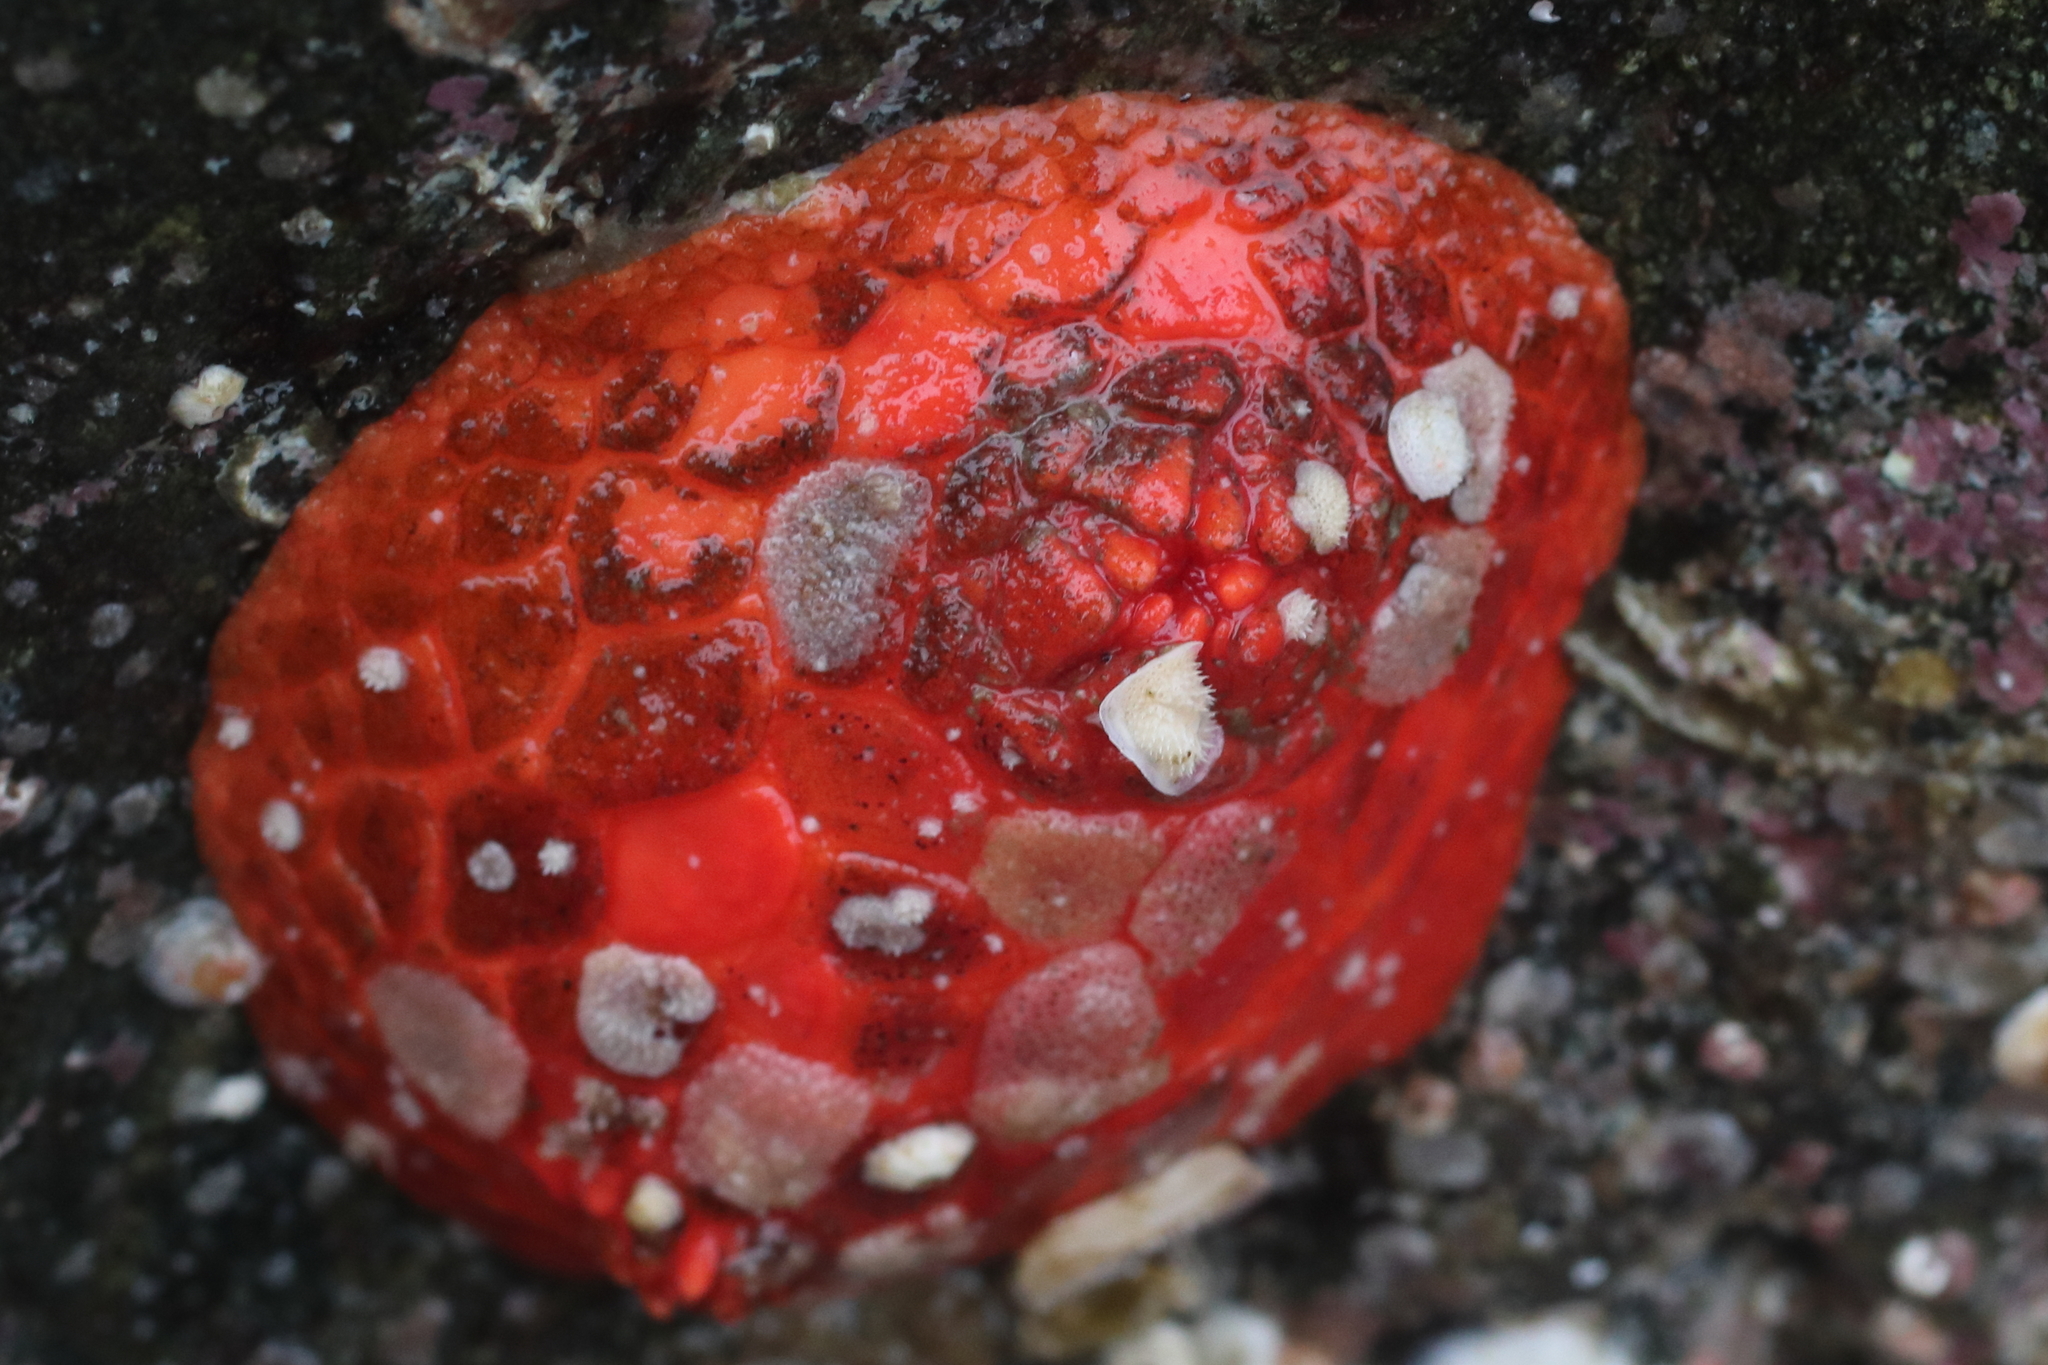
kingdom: Animalia
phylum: Echinodermata
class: Holothuroidea
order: Dendrochirotida
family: Psolidae
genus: Psolus
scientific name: Psolus chitonoides
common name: Creeping pedal sea cucumber
